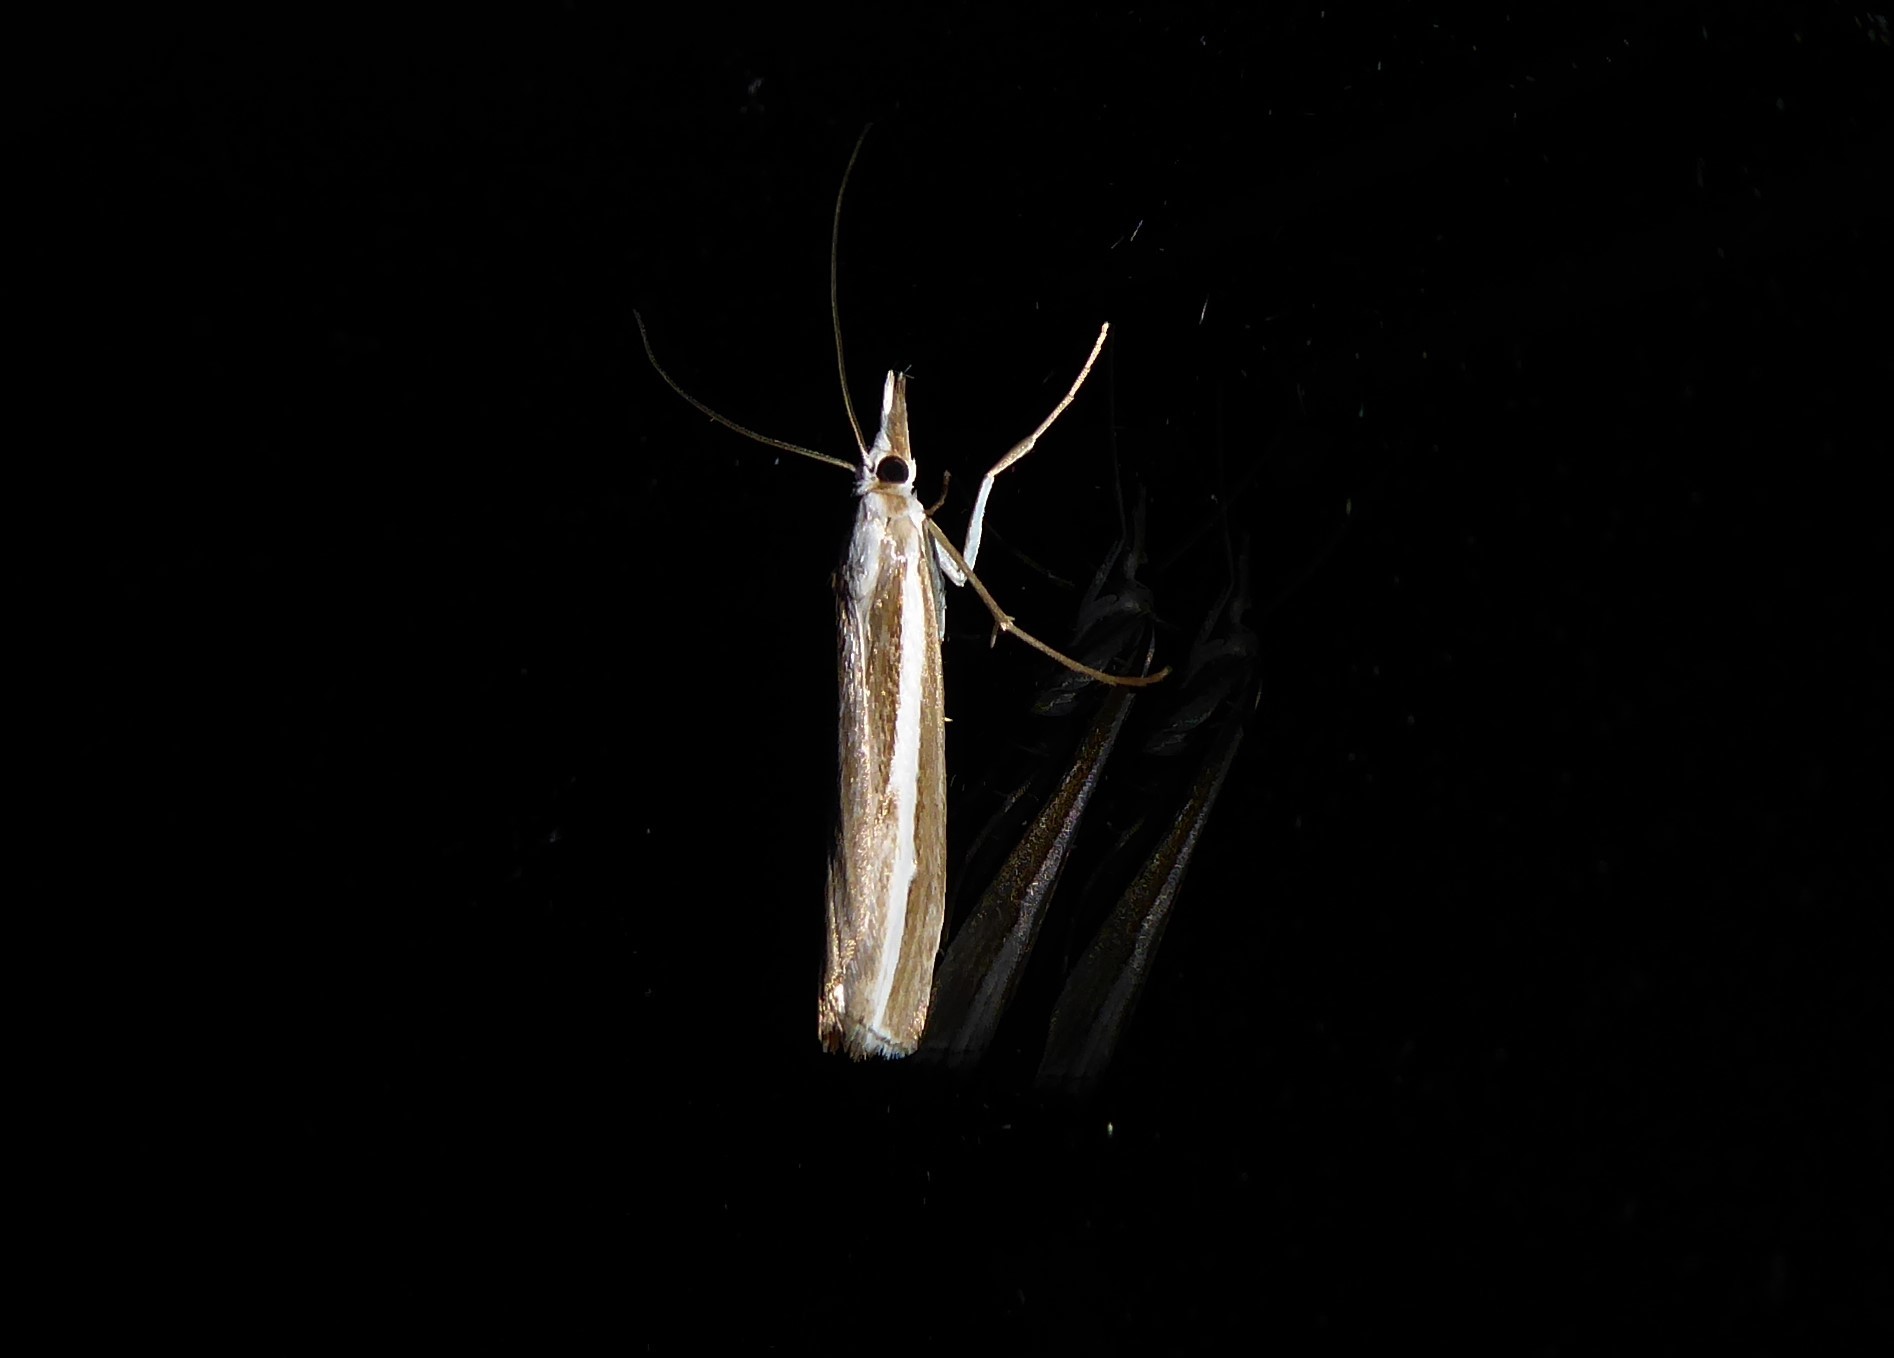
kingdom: Animalia
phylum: Arthropoda
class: Insecta
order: Lepidoptera
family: Crambidae
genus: Orocrambus
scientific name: Orocrambus vittellus
